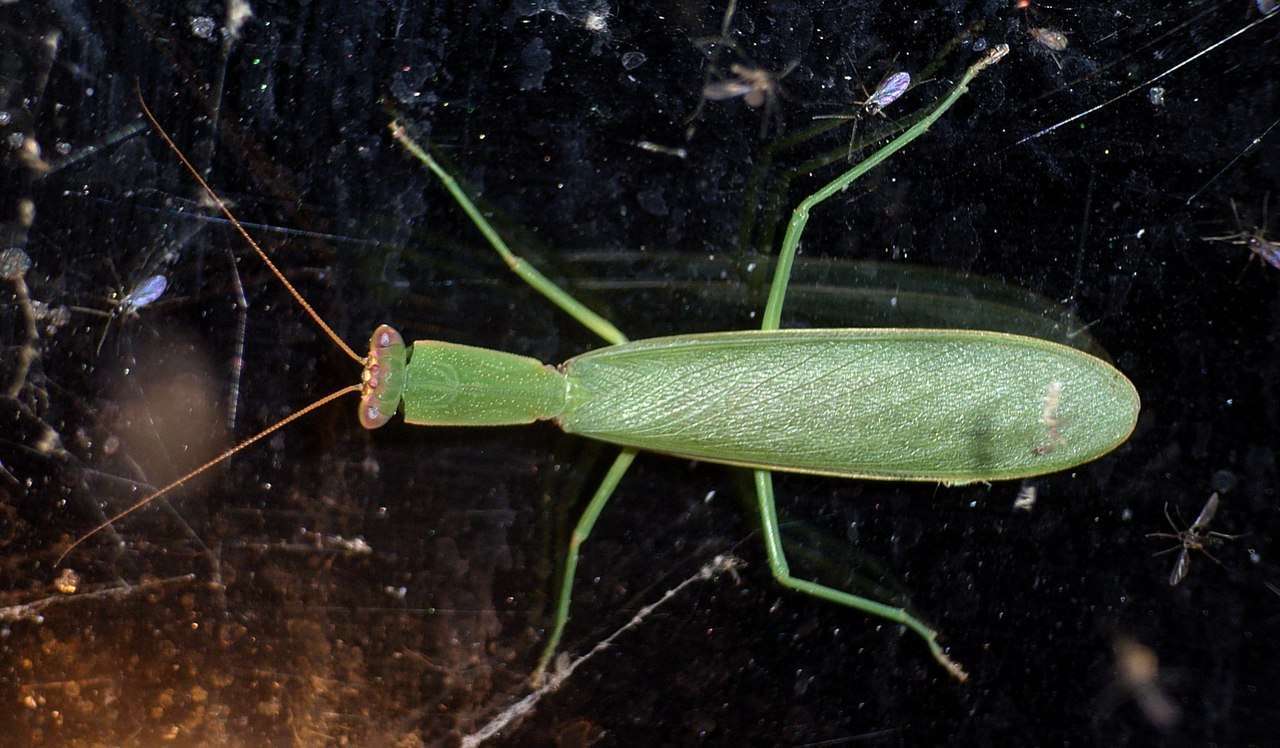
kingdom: Animalia
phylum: Arthropoda
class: Insecta
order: Mantodea
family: Mantidae
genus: Orthodera
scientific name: Orthodera ministralis
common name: Mantis
